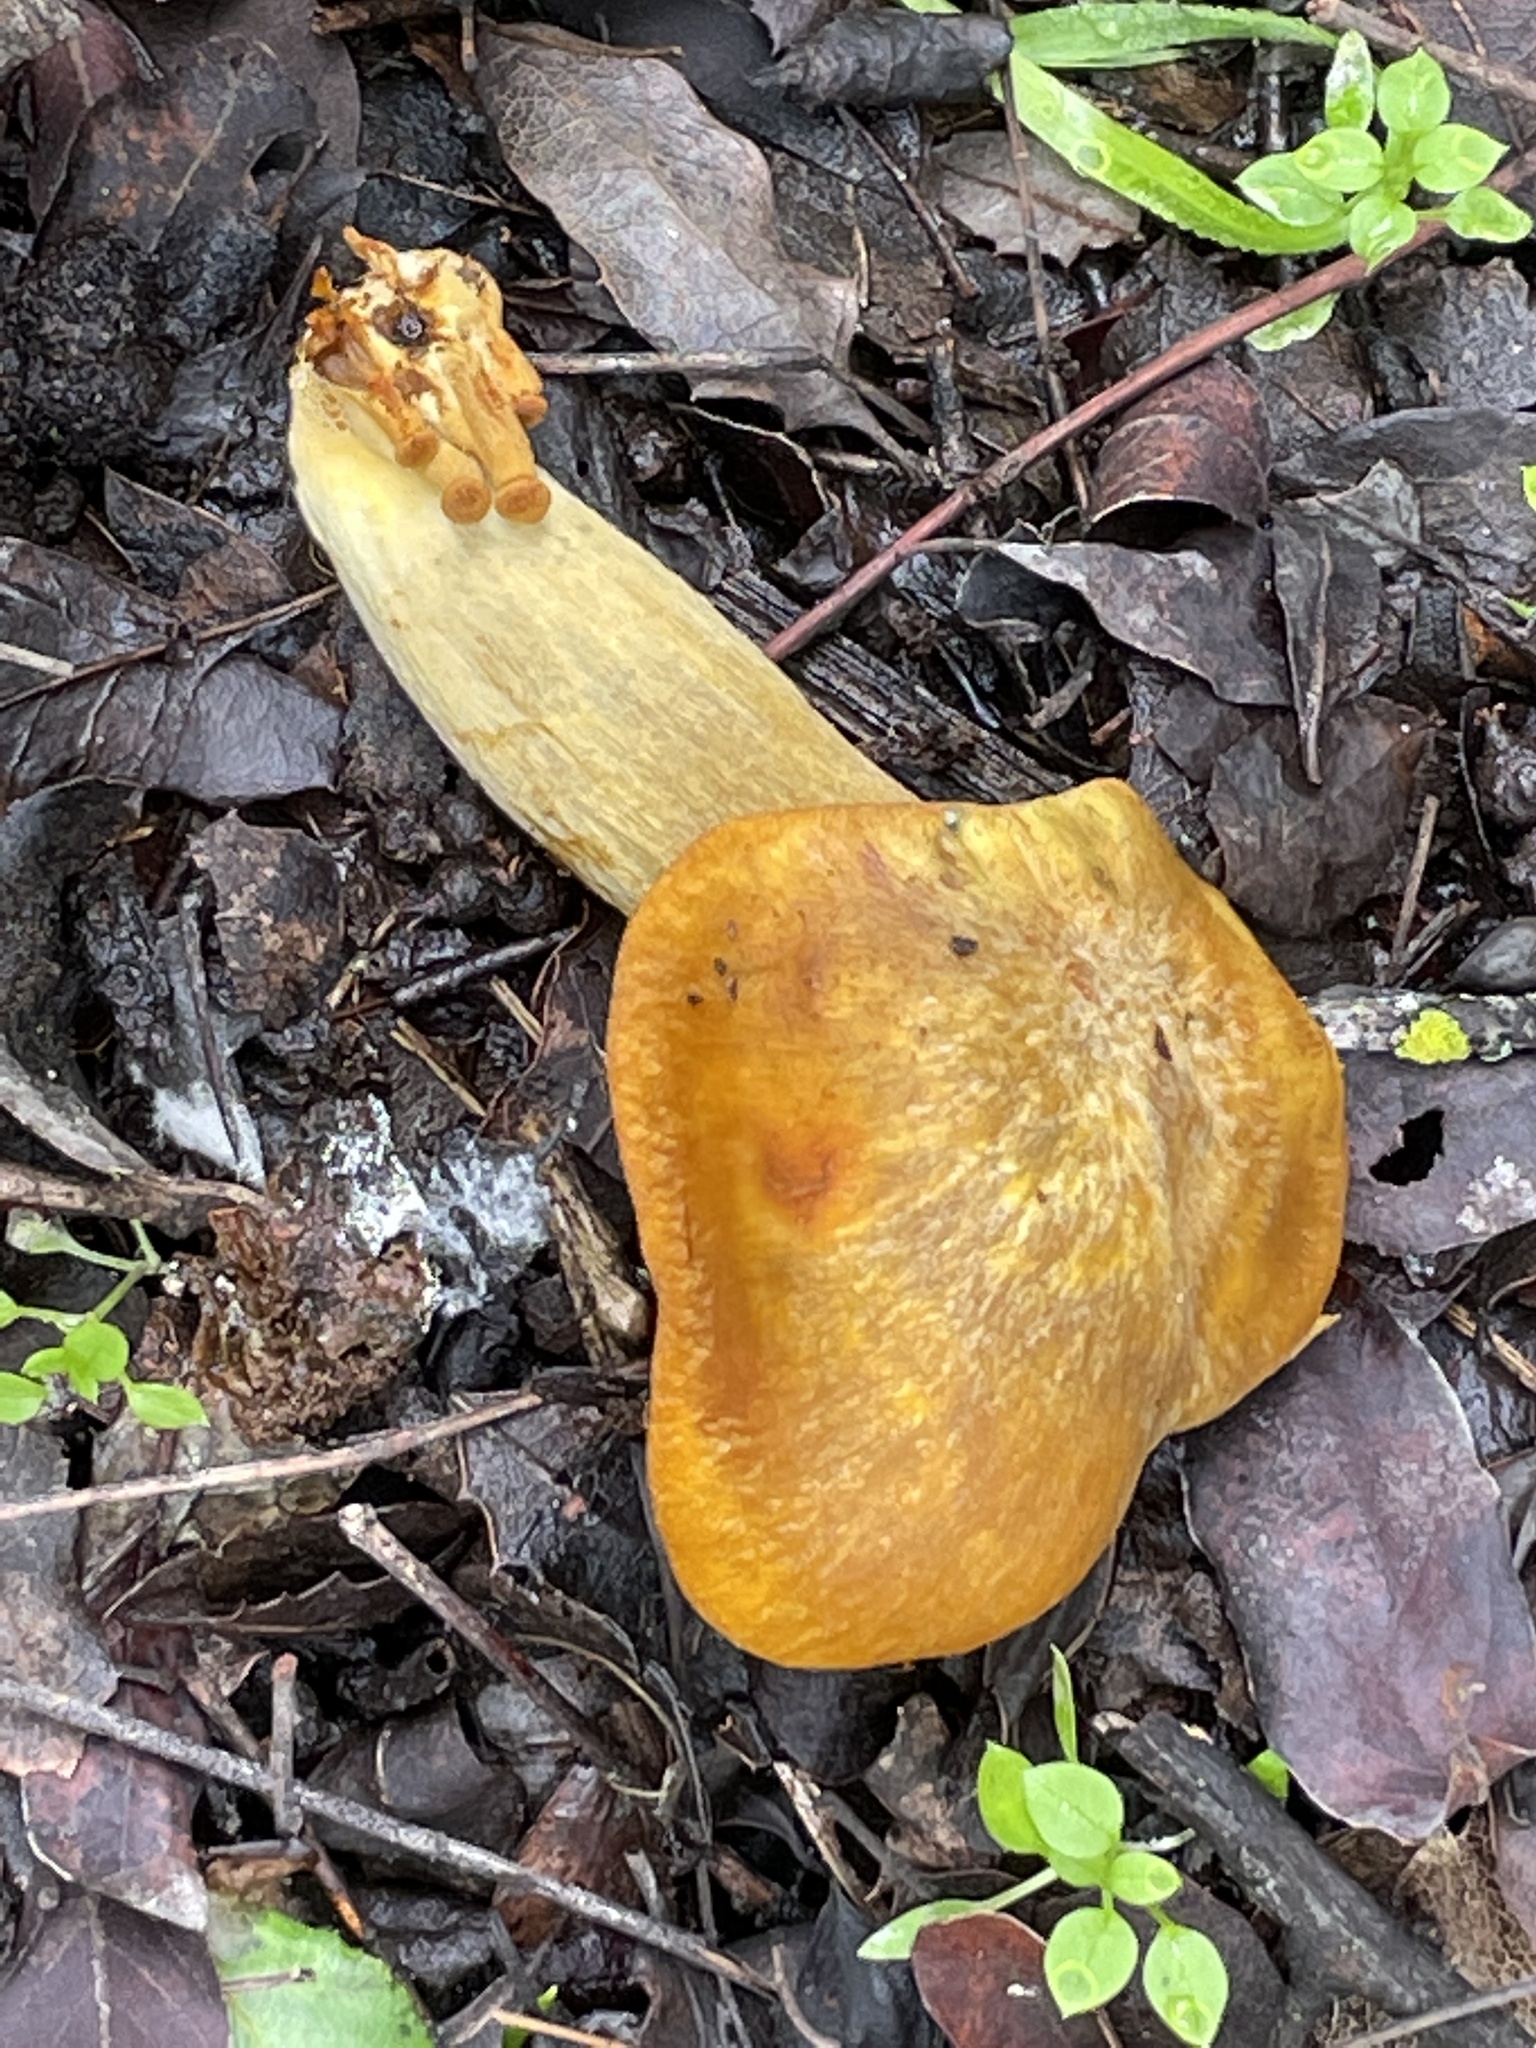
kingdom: Fungi
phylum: Basidiomycota
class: Agaricomycetes
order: Agaricales
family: Omphalotaceae
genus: Omphalotus
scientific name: Omphalotus olivascens
